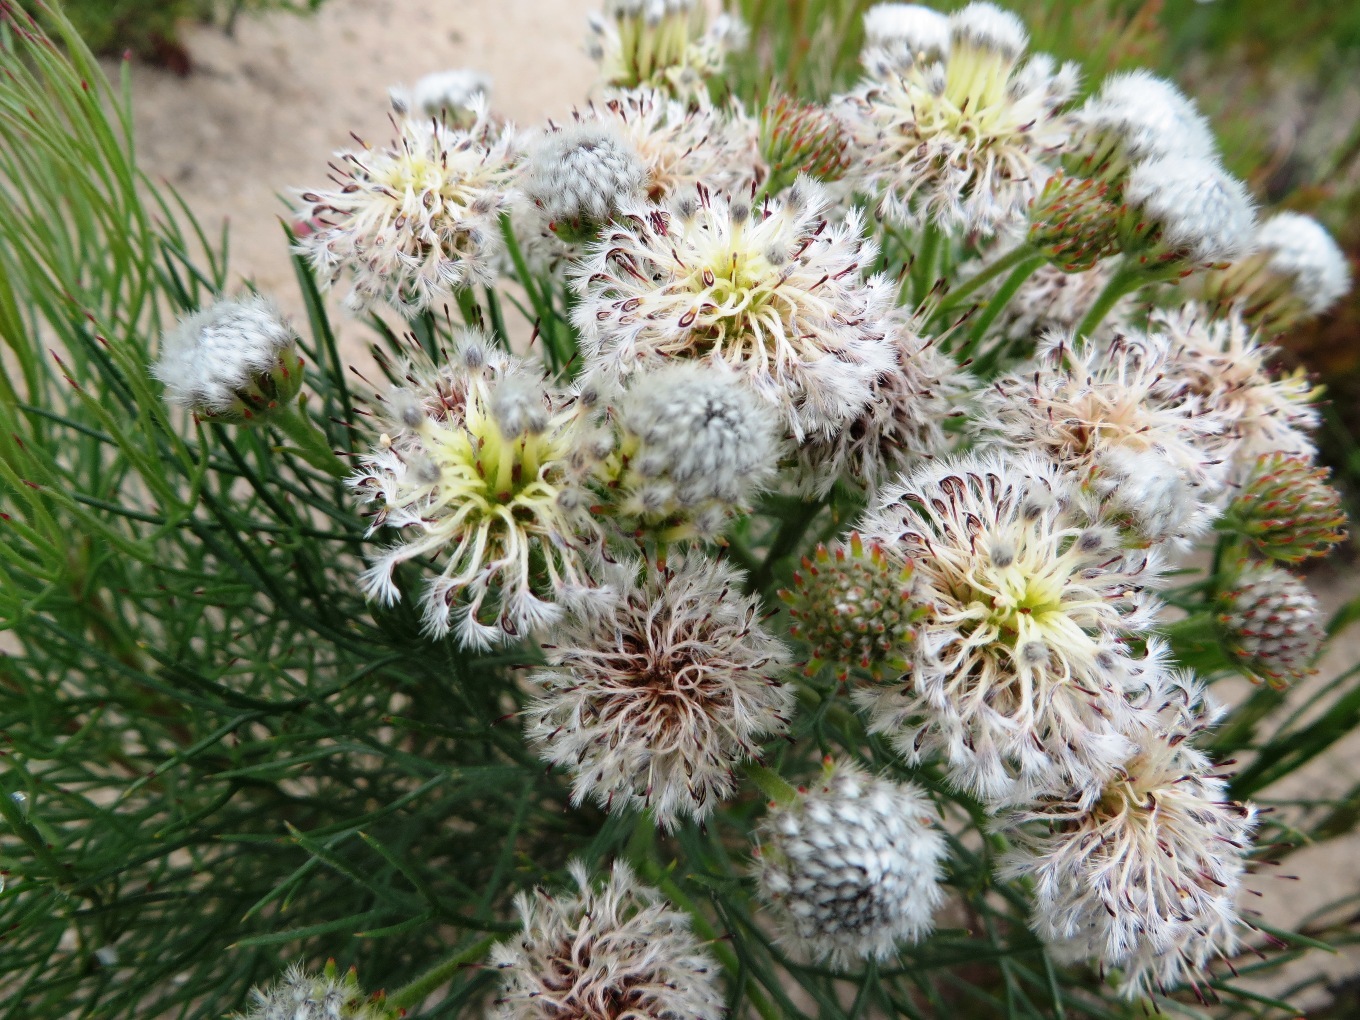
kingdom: Plantae
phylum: Tracheophyta
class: Magnoliopsida
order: Proteales
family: Proteaceae
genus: Serruria
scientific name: Serruria kraussii
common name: Snowball spiderhead
